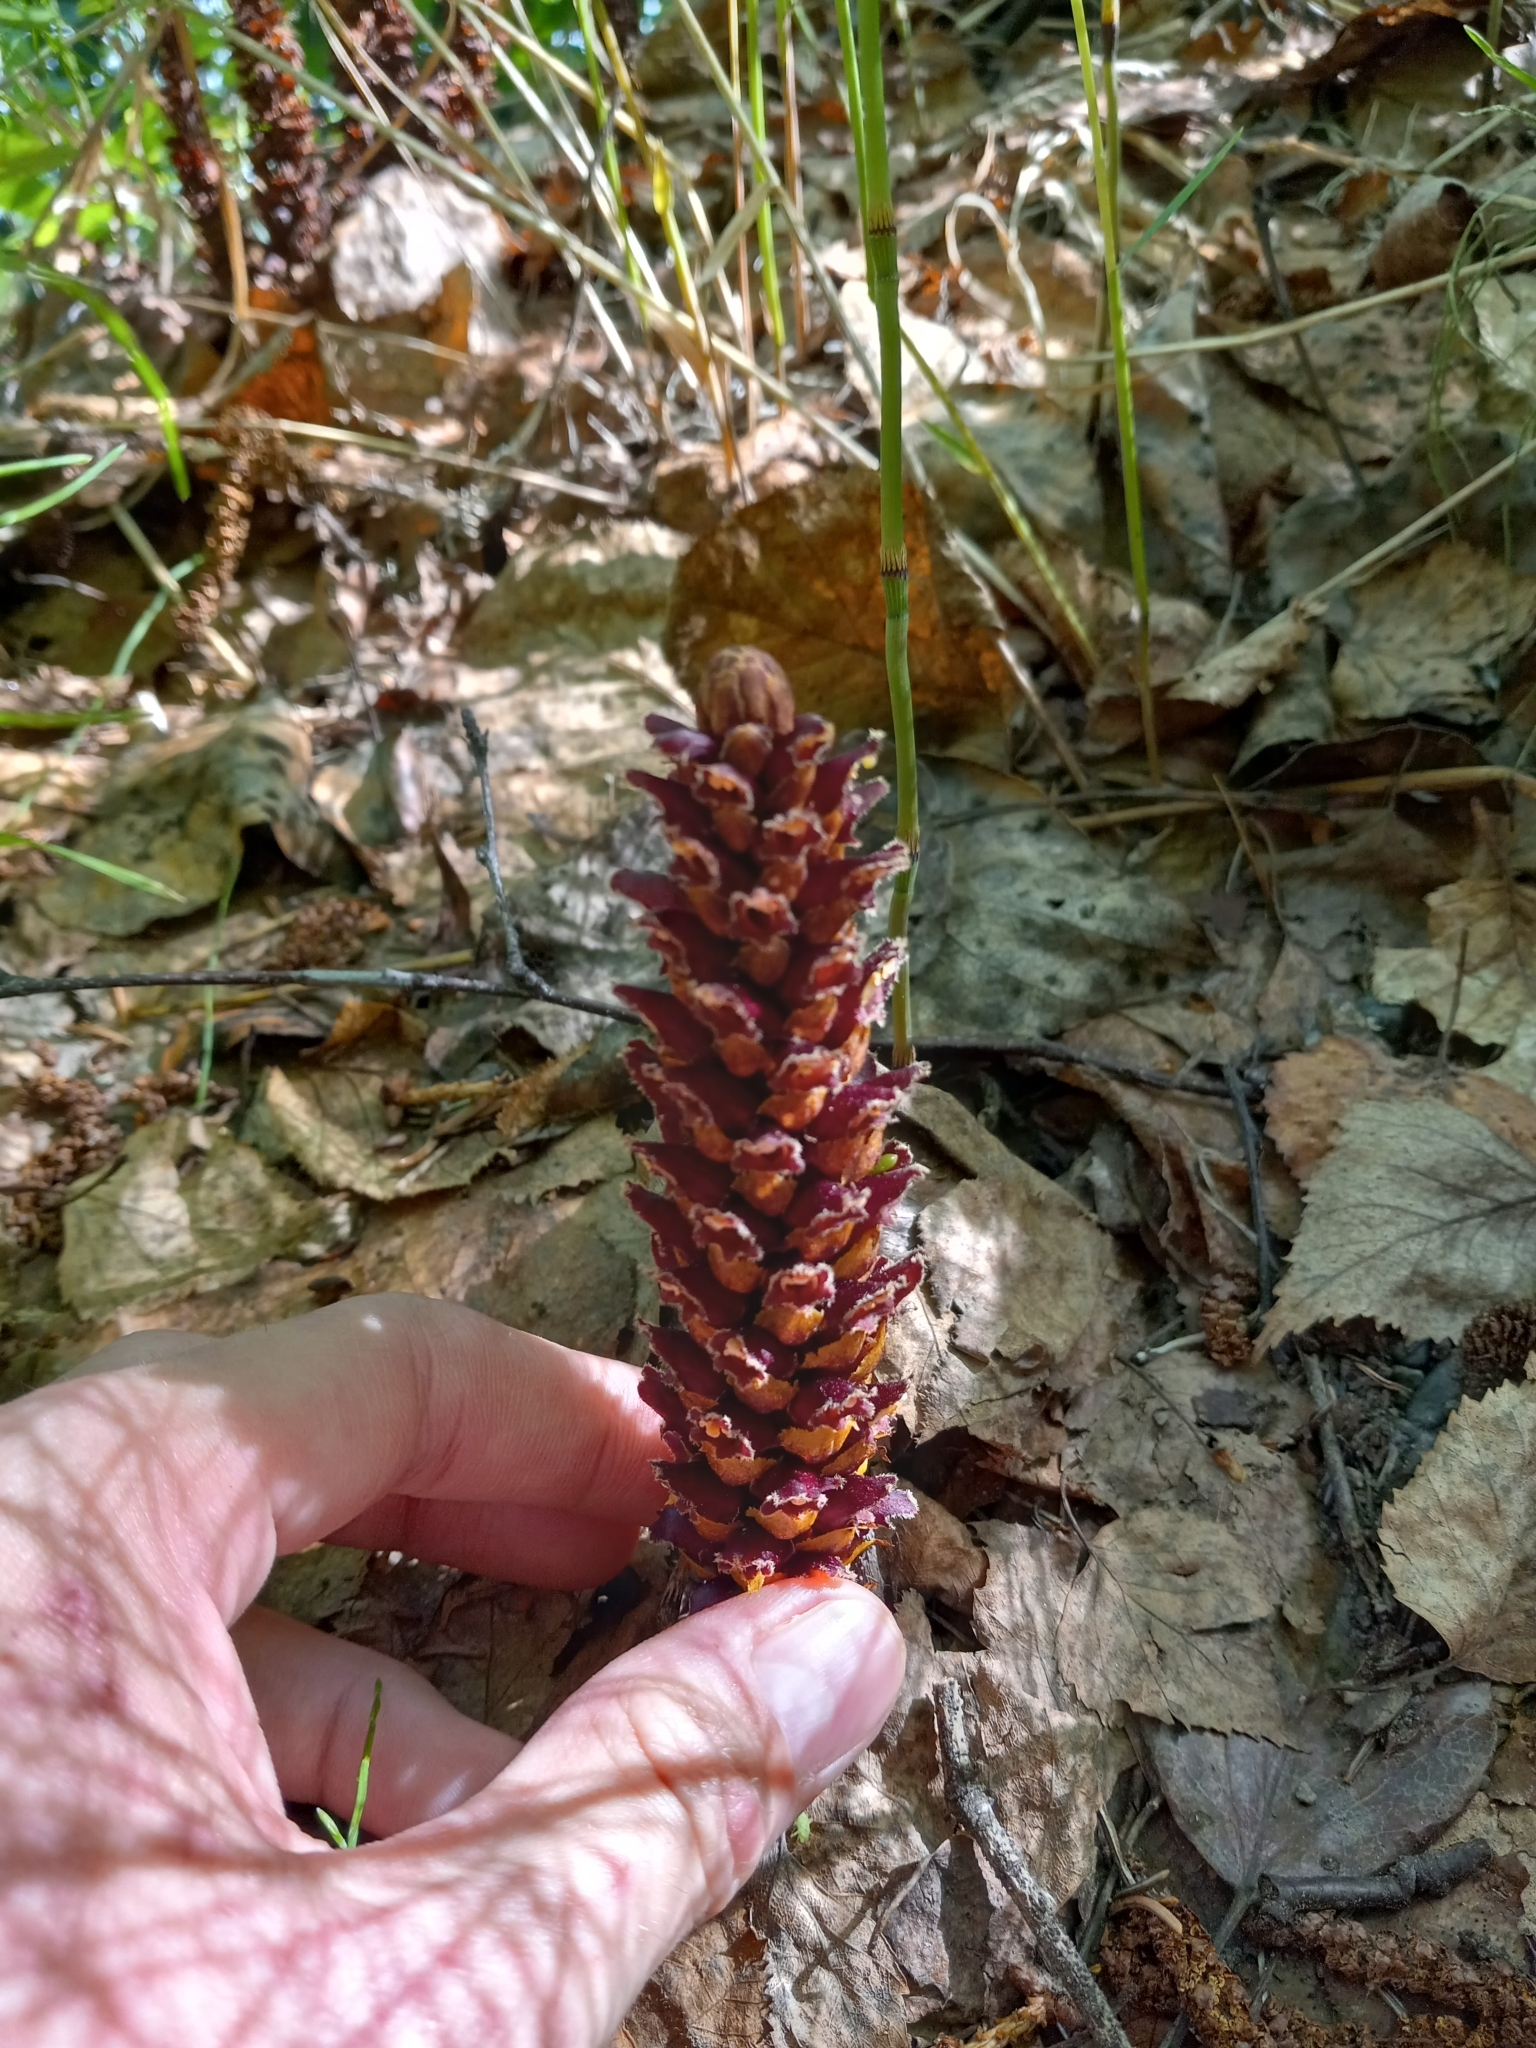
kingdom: Plantae
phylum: Tracheophyta
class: Magnoliopsida
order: Lamiales
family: Orobanchaceae
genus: Boschniakia
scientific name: Boschniakia rossica
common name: Poque
